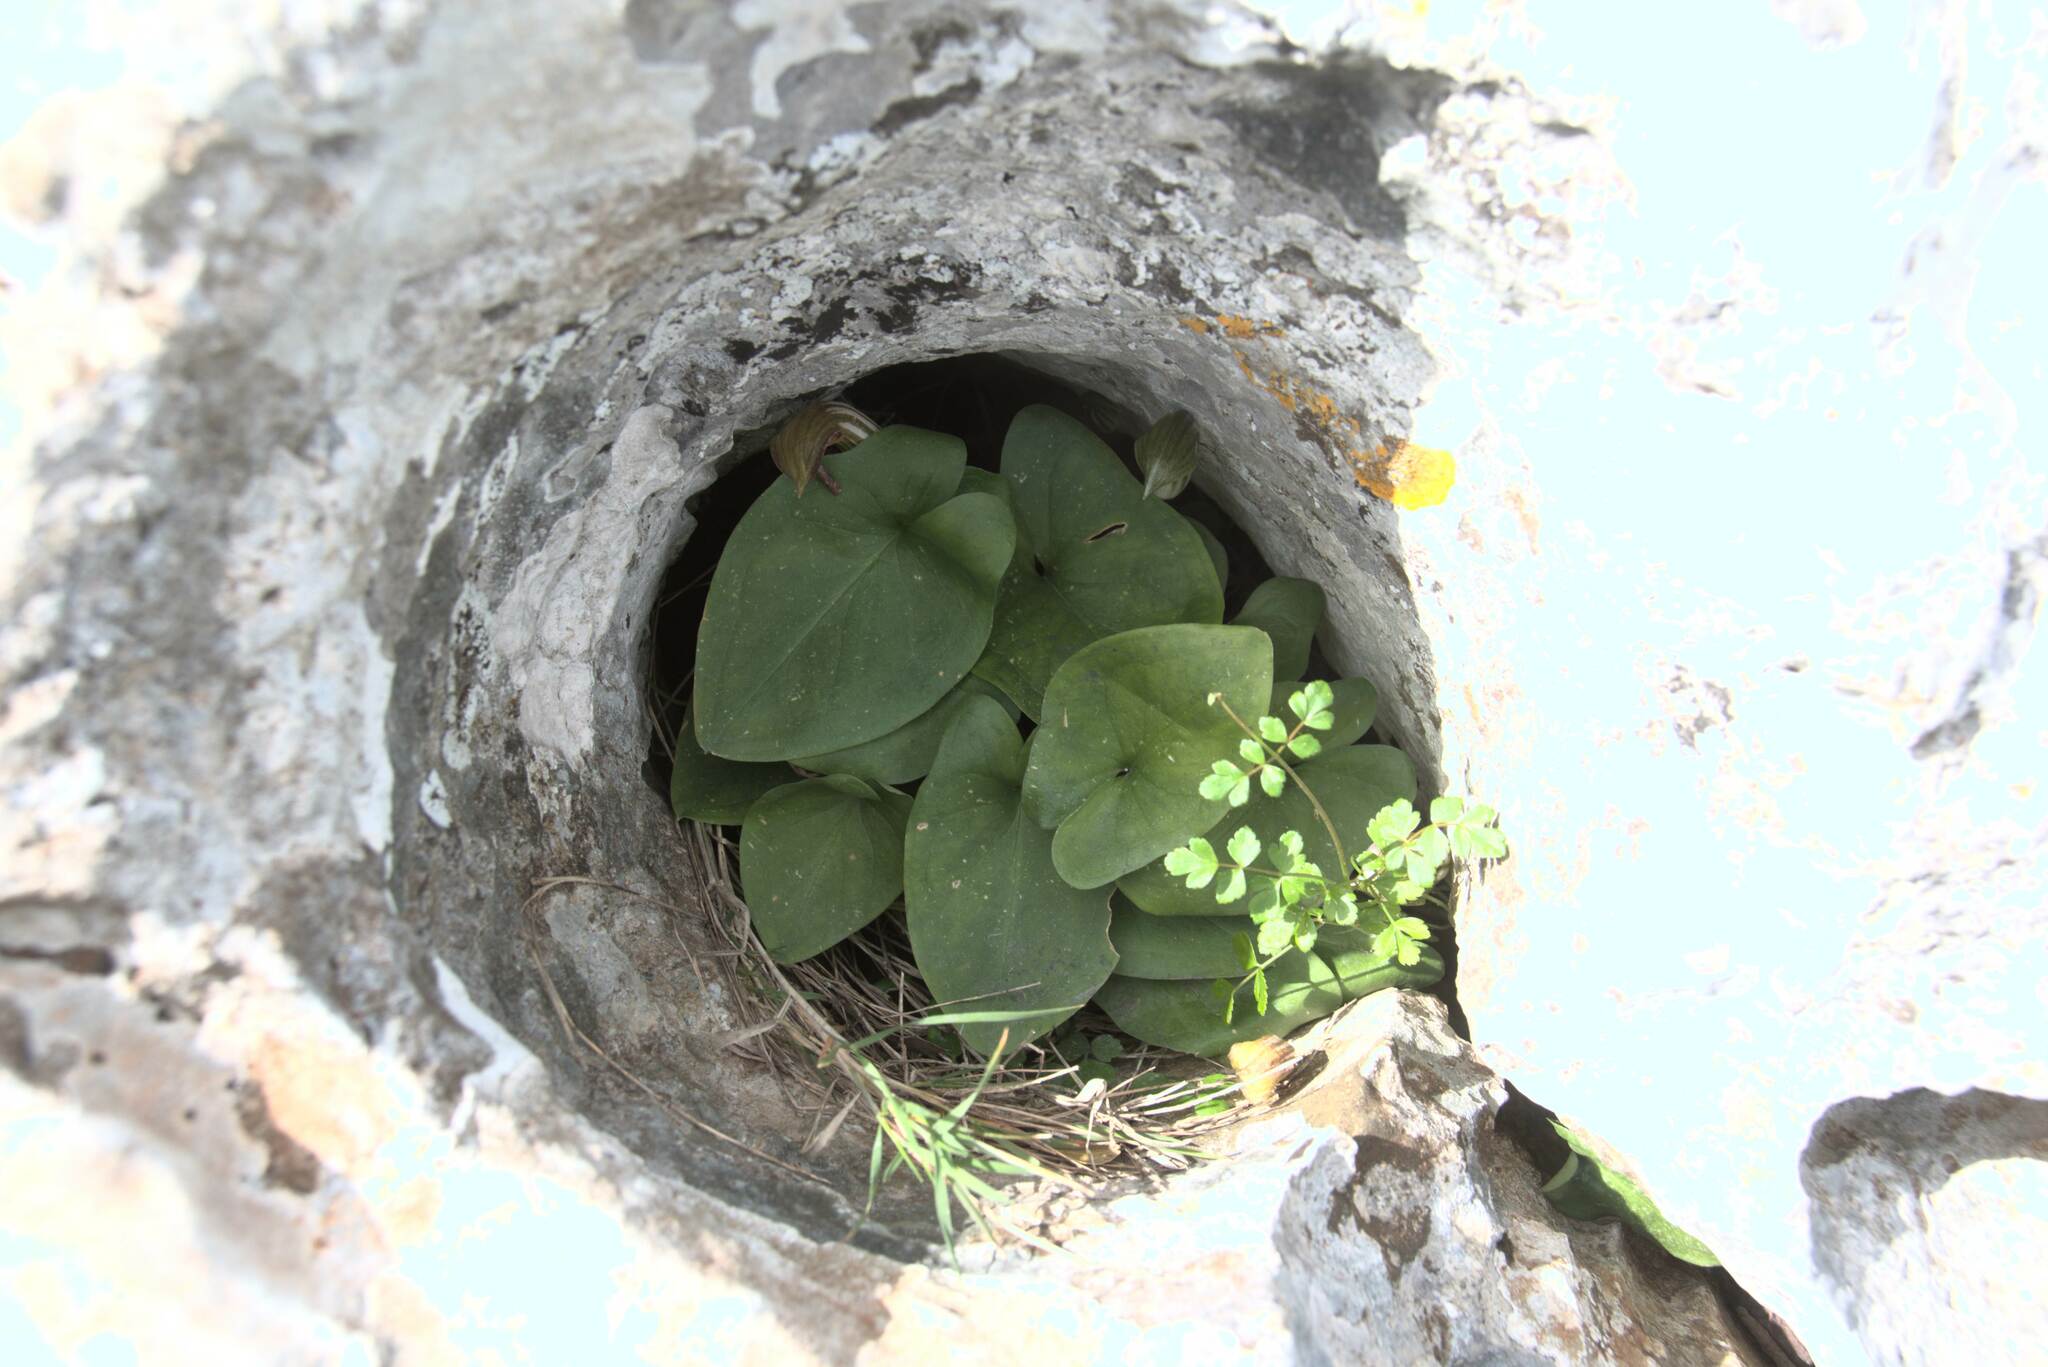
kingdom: Plantae
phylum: Tracheophyta
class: Liliopsida
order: Alismatales
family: Araceae
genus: Arisarum
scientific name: Arisarum vulgare
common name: Common arisarum
